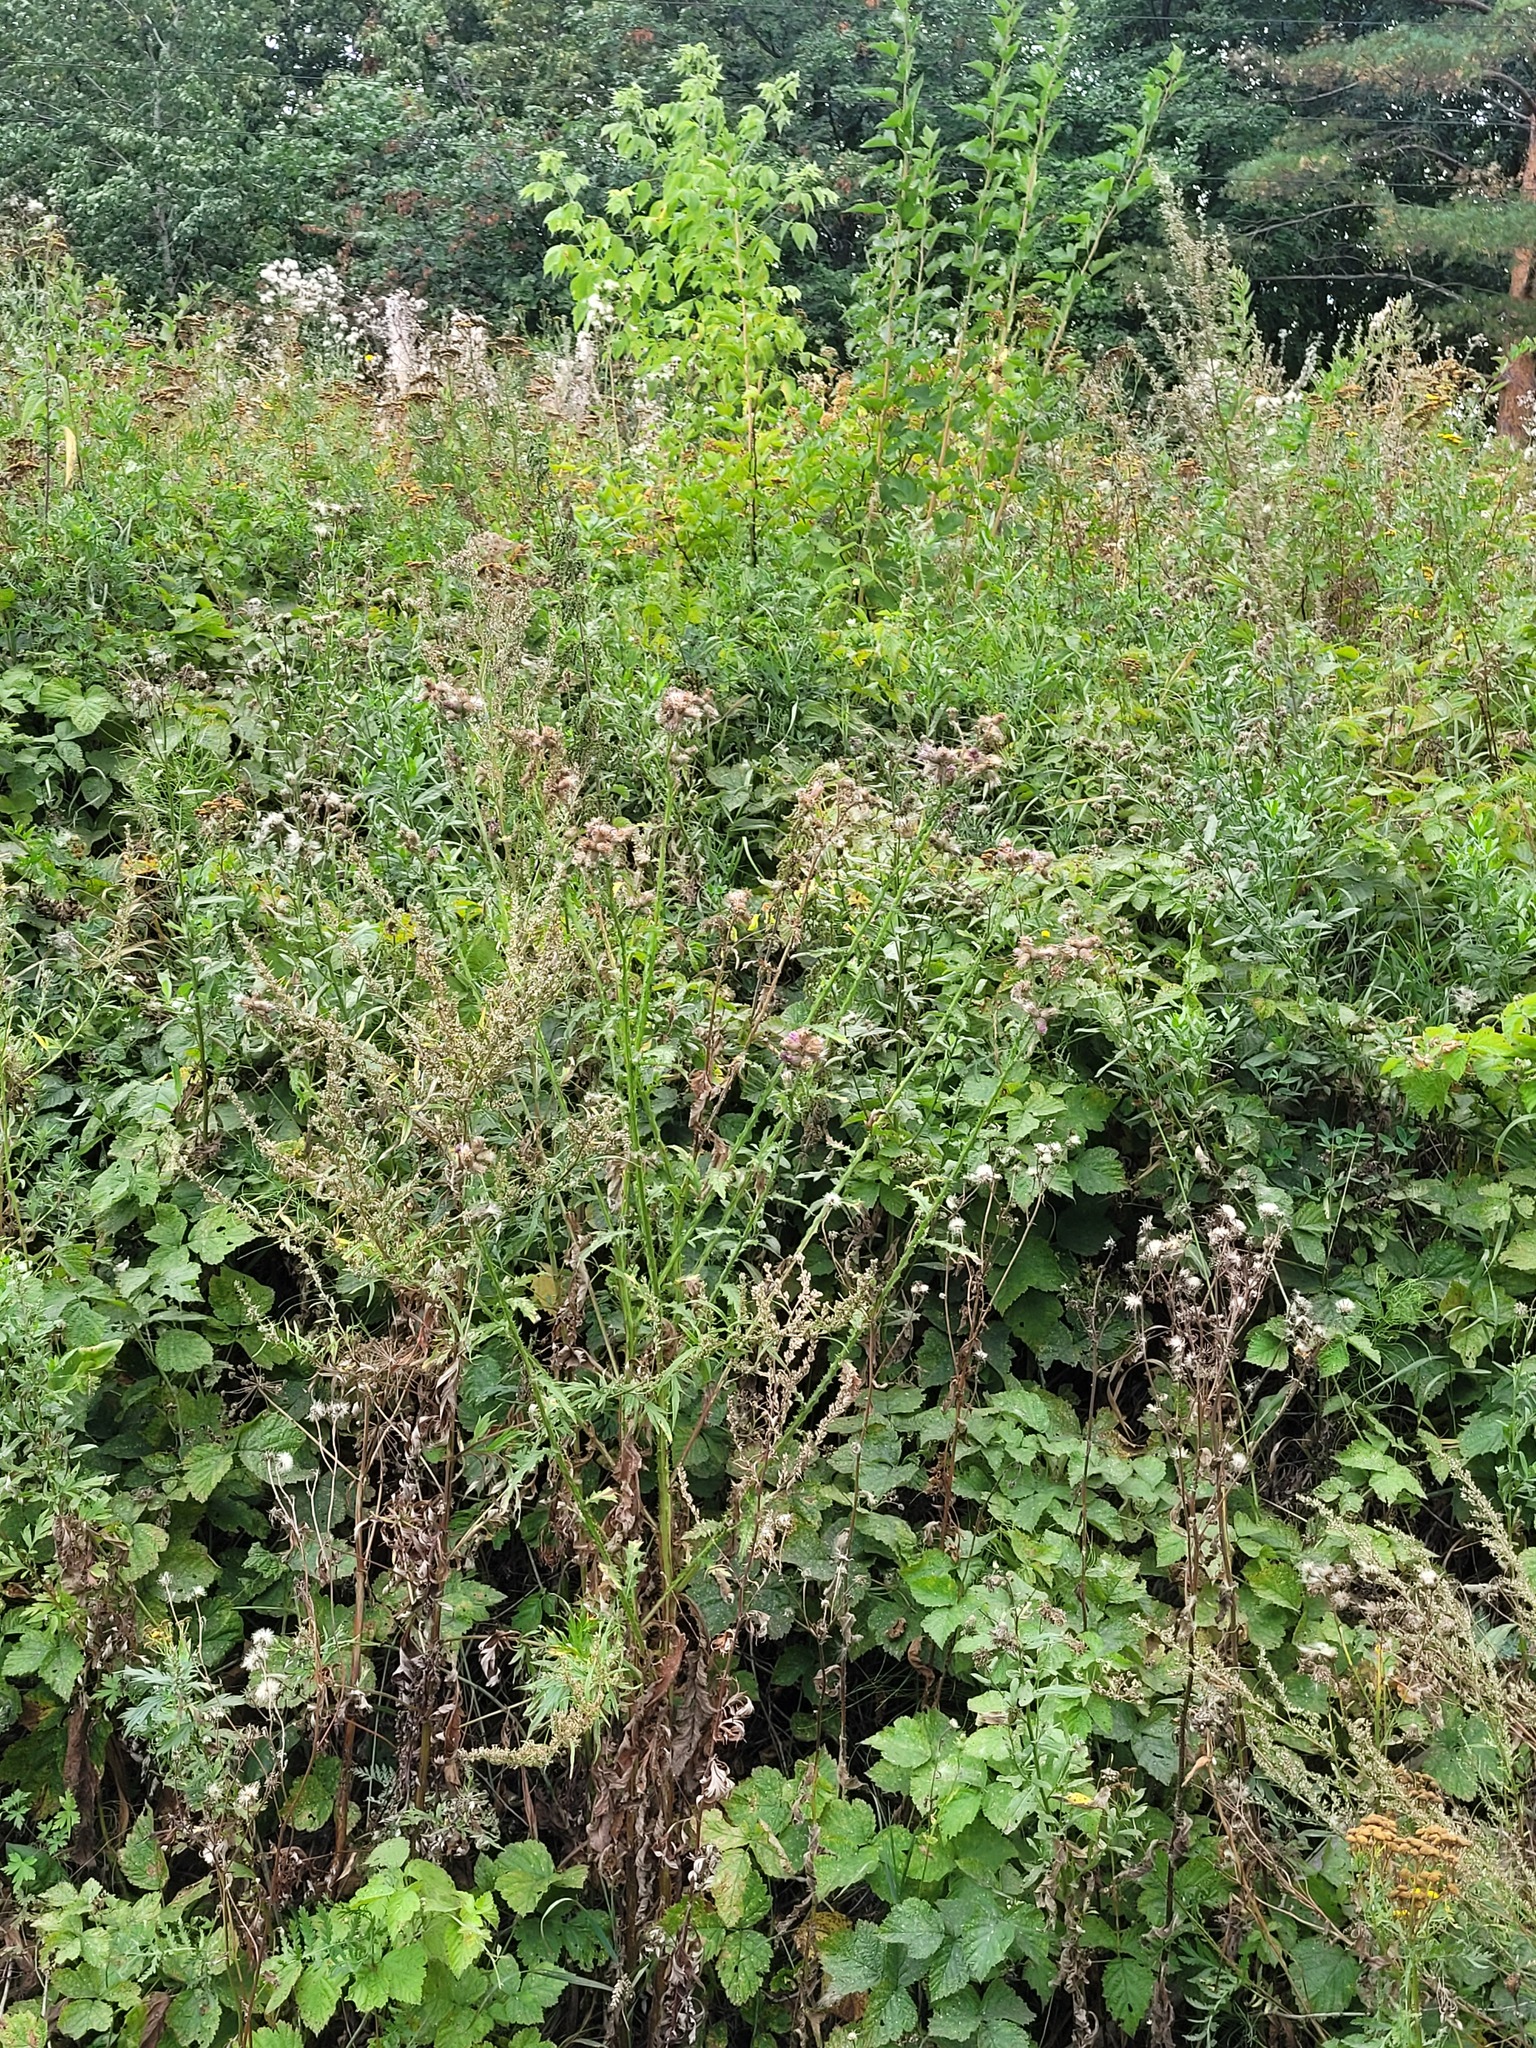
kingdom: Plantae
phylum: Tracheophyta
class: Magnoliopsida
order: Asterales
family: Asteraceae
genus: Carduus
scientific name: Carduus crispus
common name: Welted thistle
